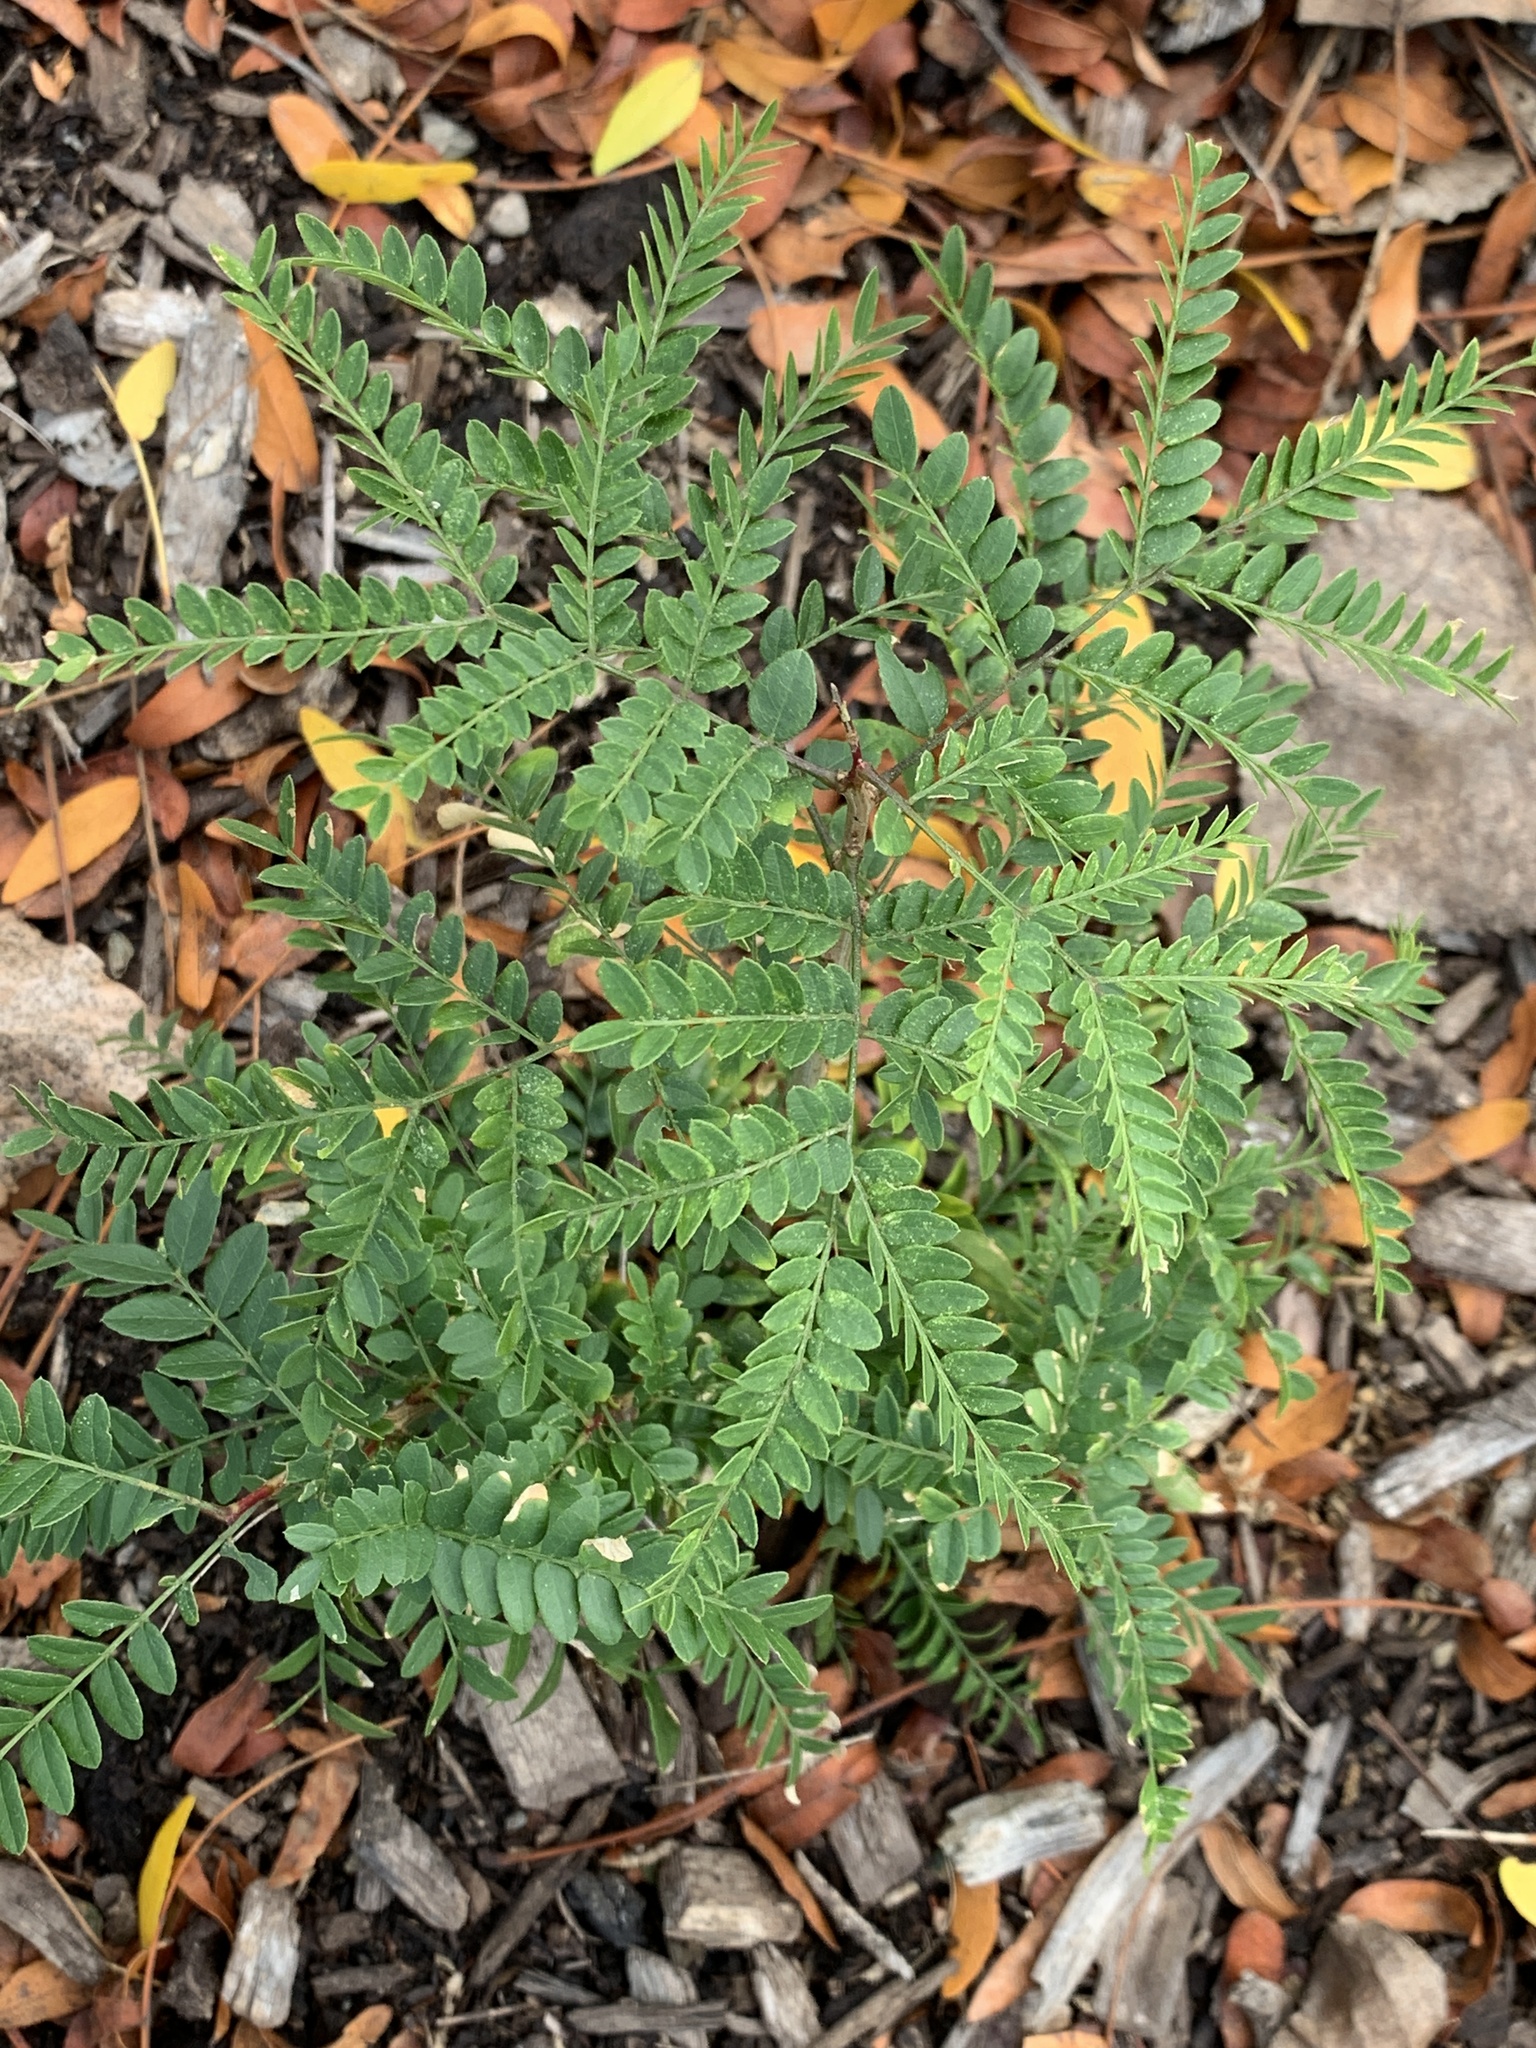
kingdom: Plantae
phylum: Tracheophyta
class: Magnoliopsida
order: Fabales
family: Fabaceae
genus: Gleditsia
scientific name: Gleditsia triacanthos
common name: Common honeylocust
